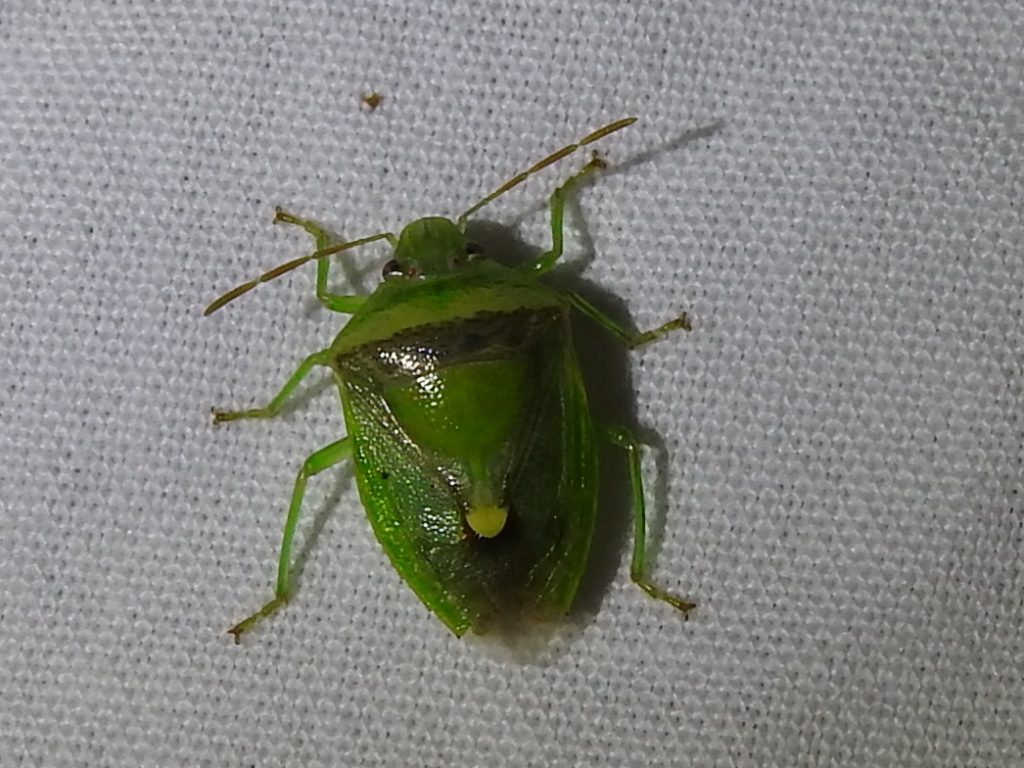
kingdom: Animalia
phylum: Arthropoda
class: Insecta
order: Hemiptera
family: Pentatomidae
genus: Banasa
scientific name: Banasa dimidiata
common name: Green burgundy stink bug
